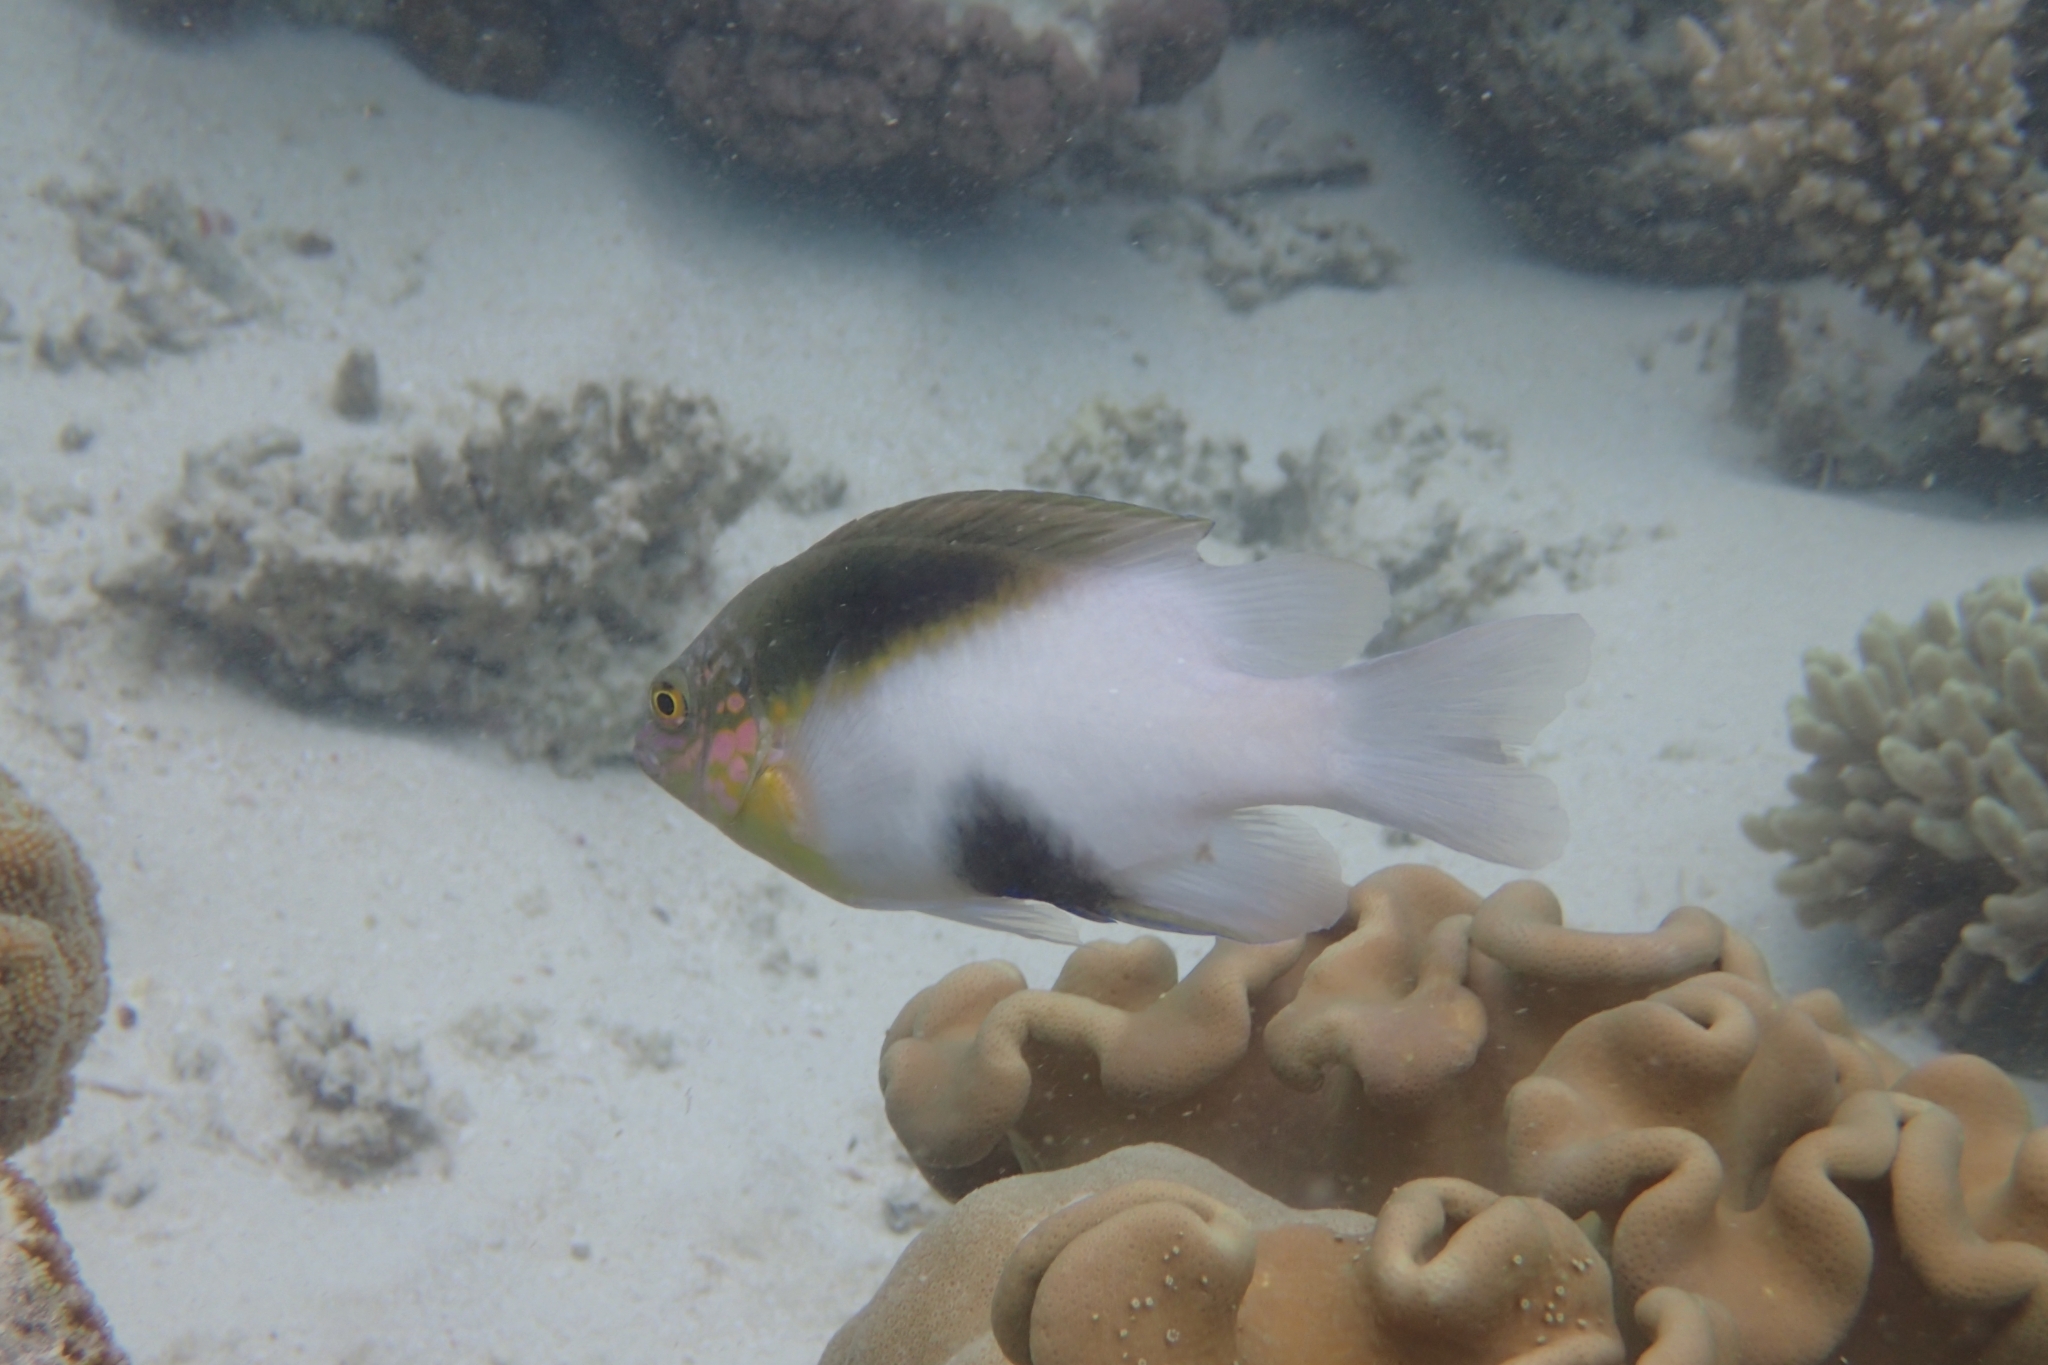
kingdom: Animalia
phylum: Chordata
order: Perciformes
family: Pomacentridae
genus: Dischistodus
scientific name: Dischistodus melanotus
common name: Black-vent damsel
